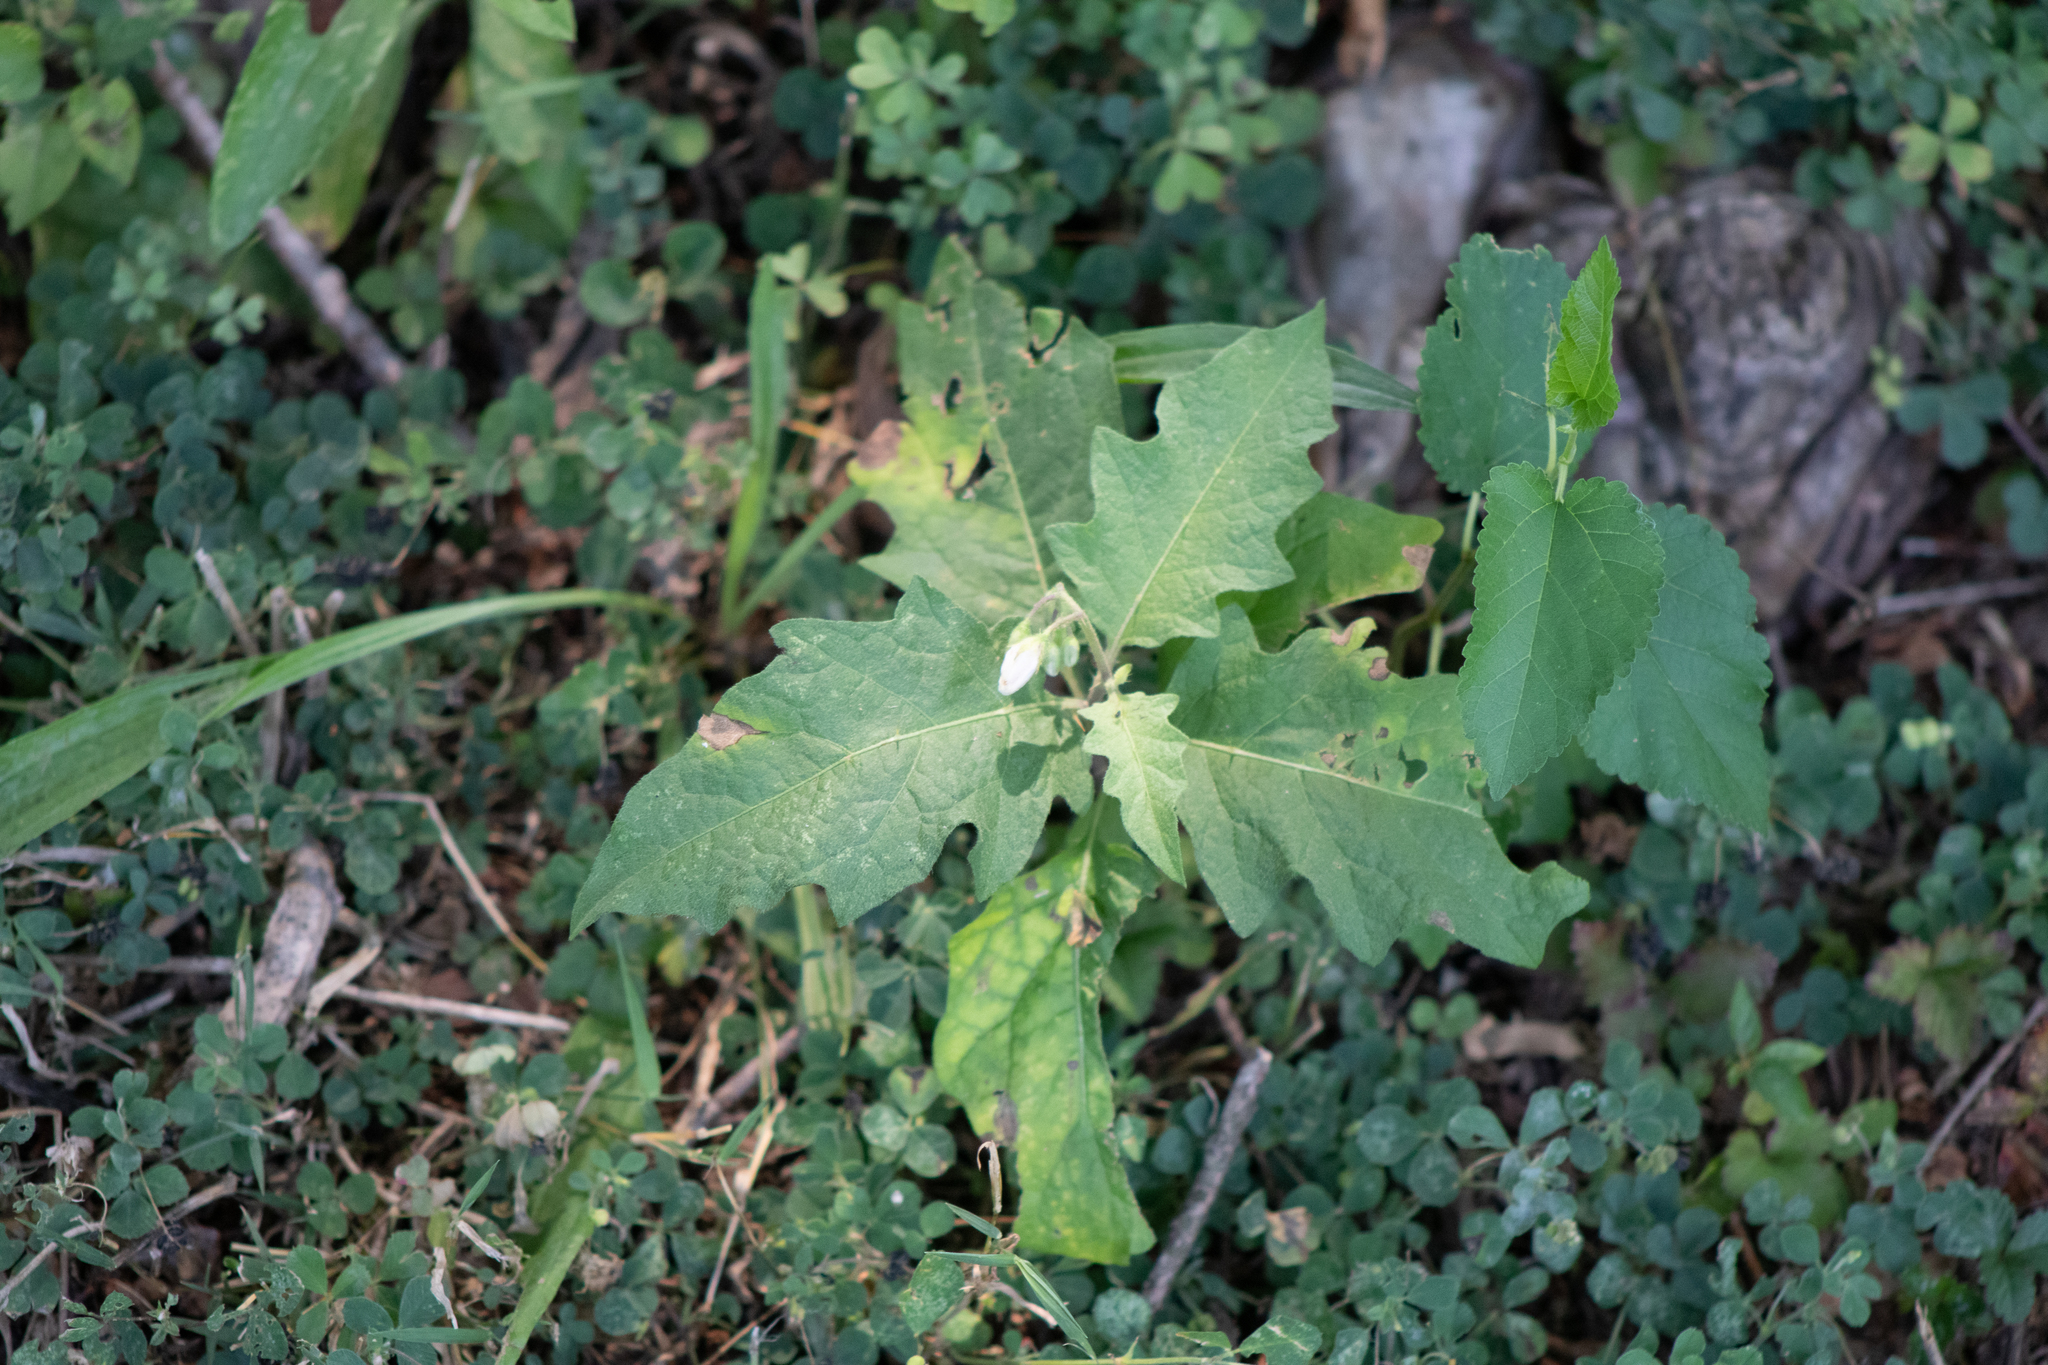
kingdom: Plantae
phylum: Tracheophyta
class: Magnoliopsida
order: Solanales
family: Solanaceae
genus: Solanum
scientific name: Solanum carolinense
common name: Horse-nettle
